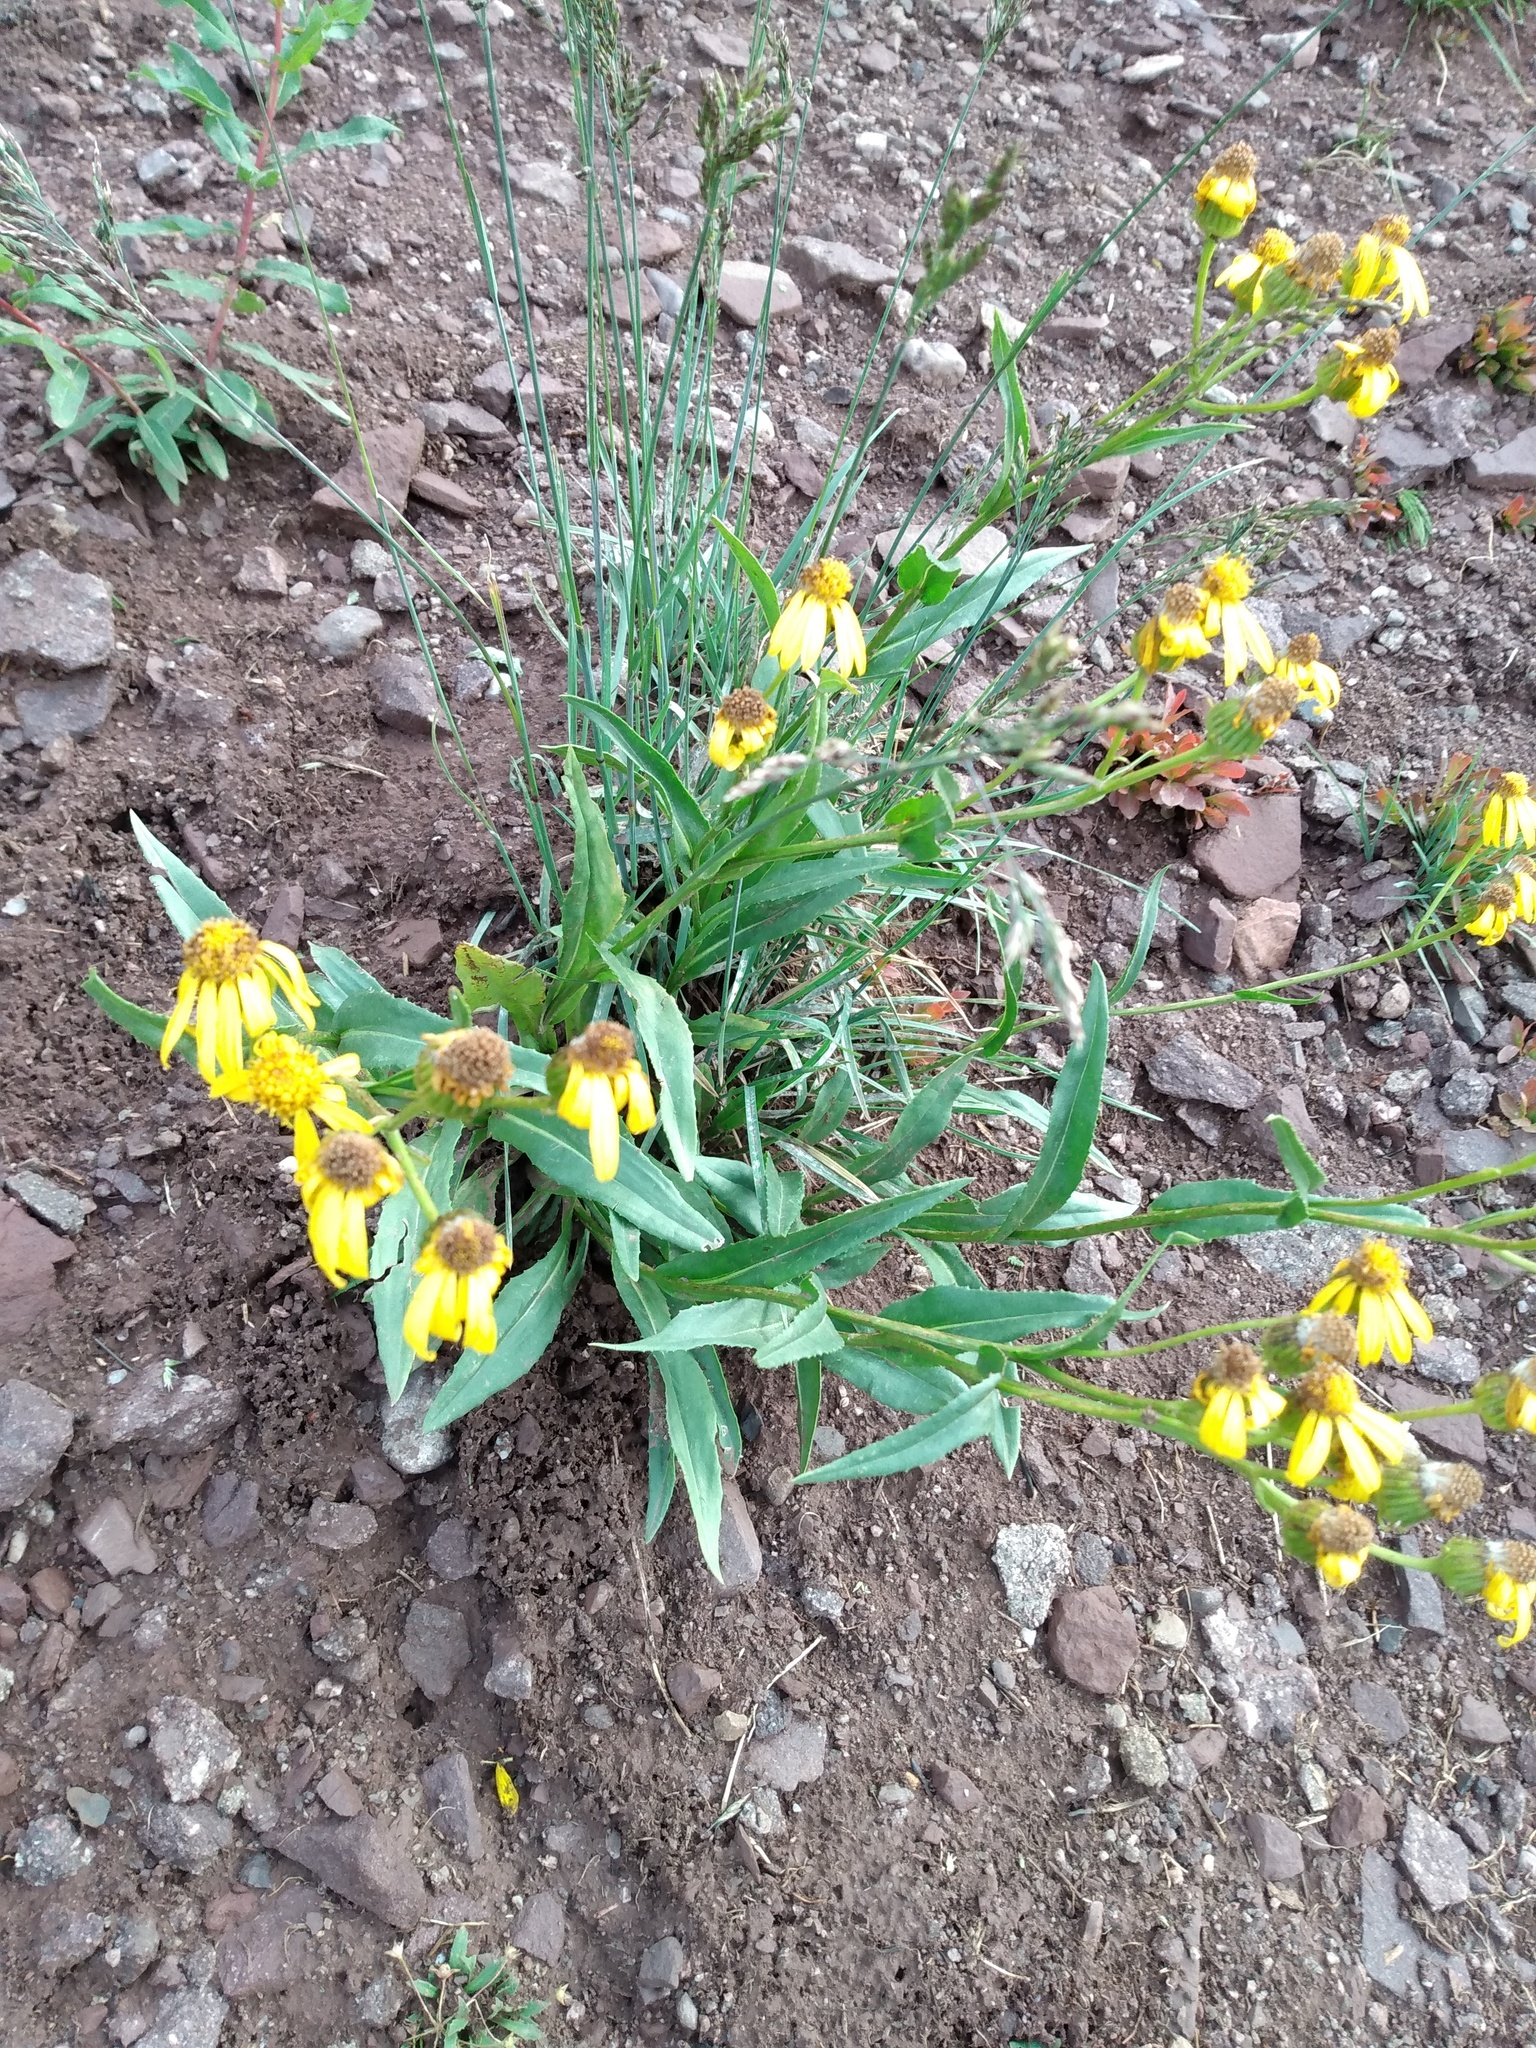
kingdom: Plantae
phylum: Tracheophyta
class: Magnoliopsida
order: Asterales
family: Asteraceae
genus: Senecio
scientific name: Senecio crassulus
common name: Mountain-meadow butterweed
